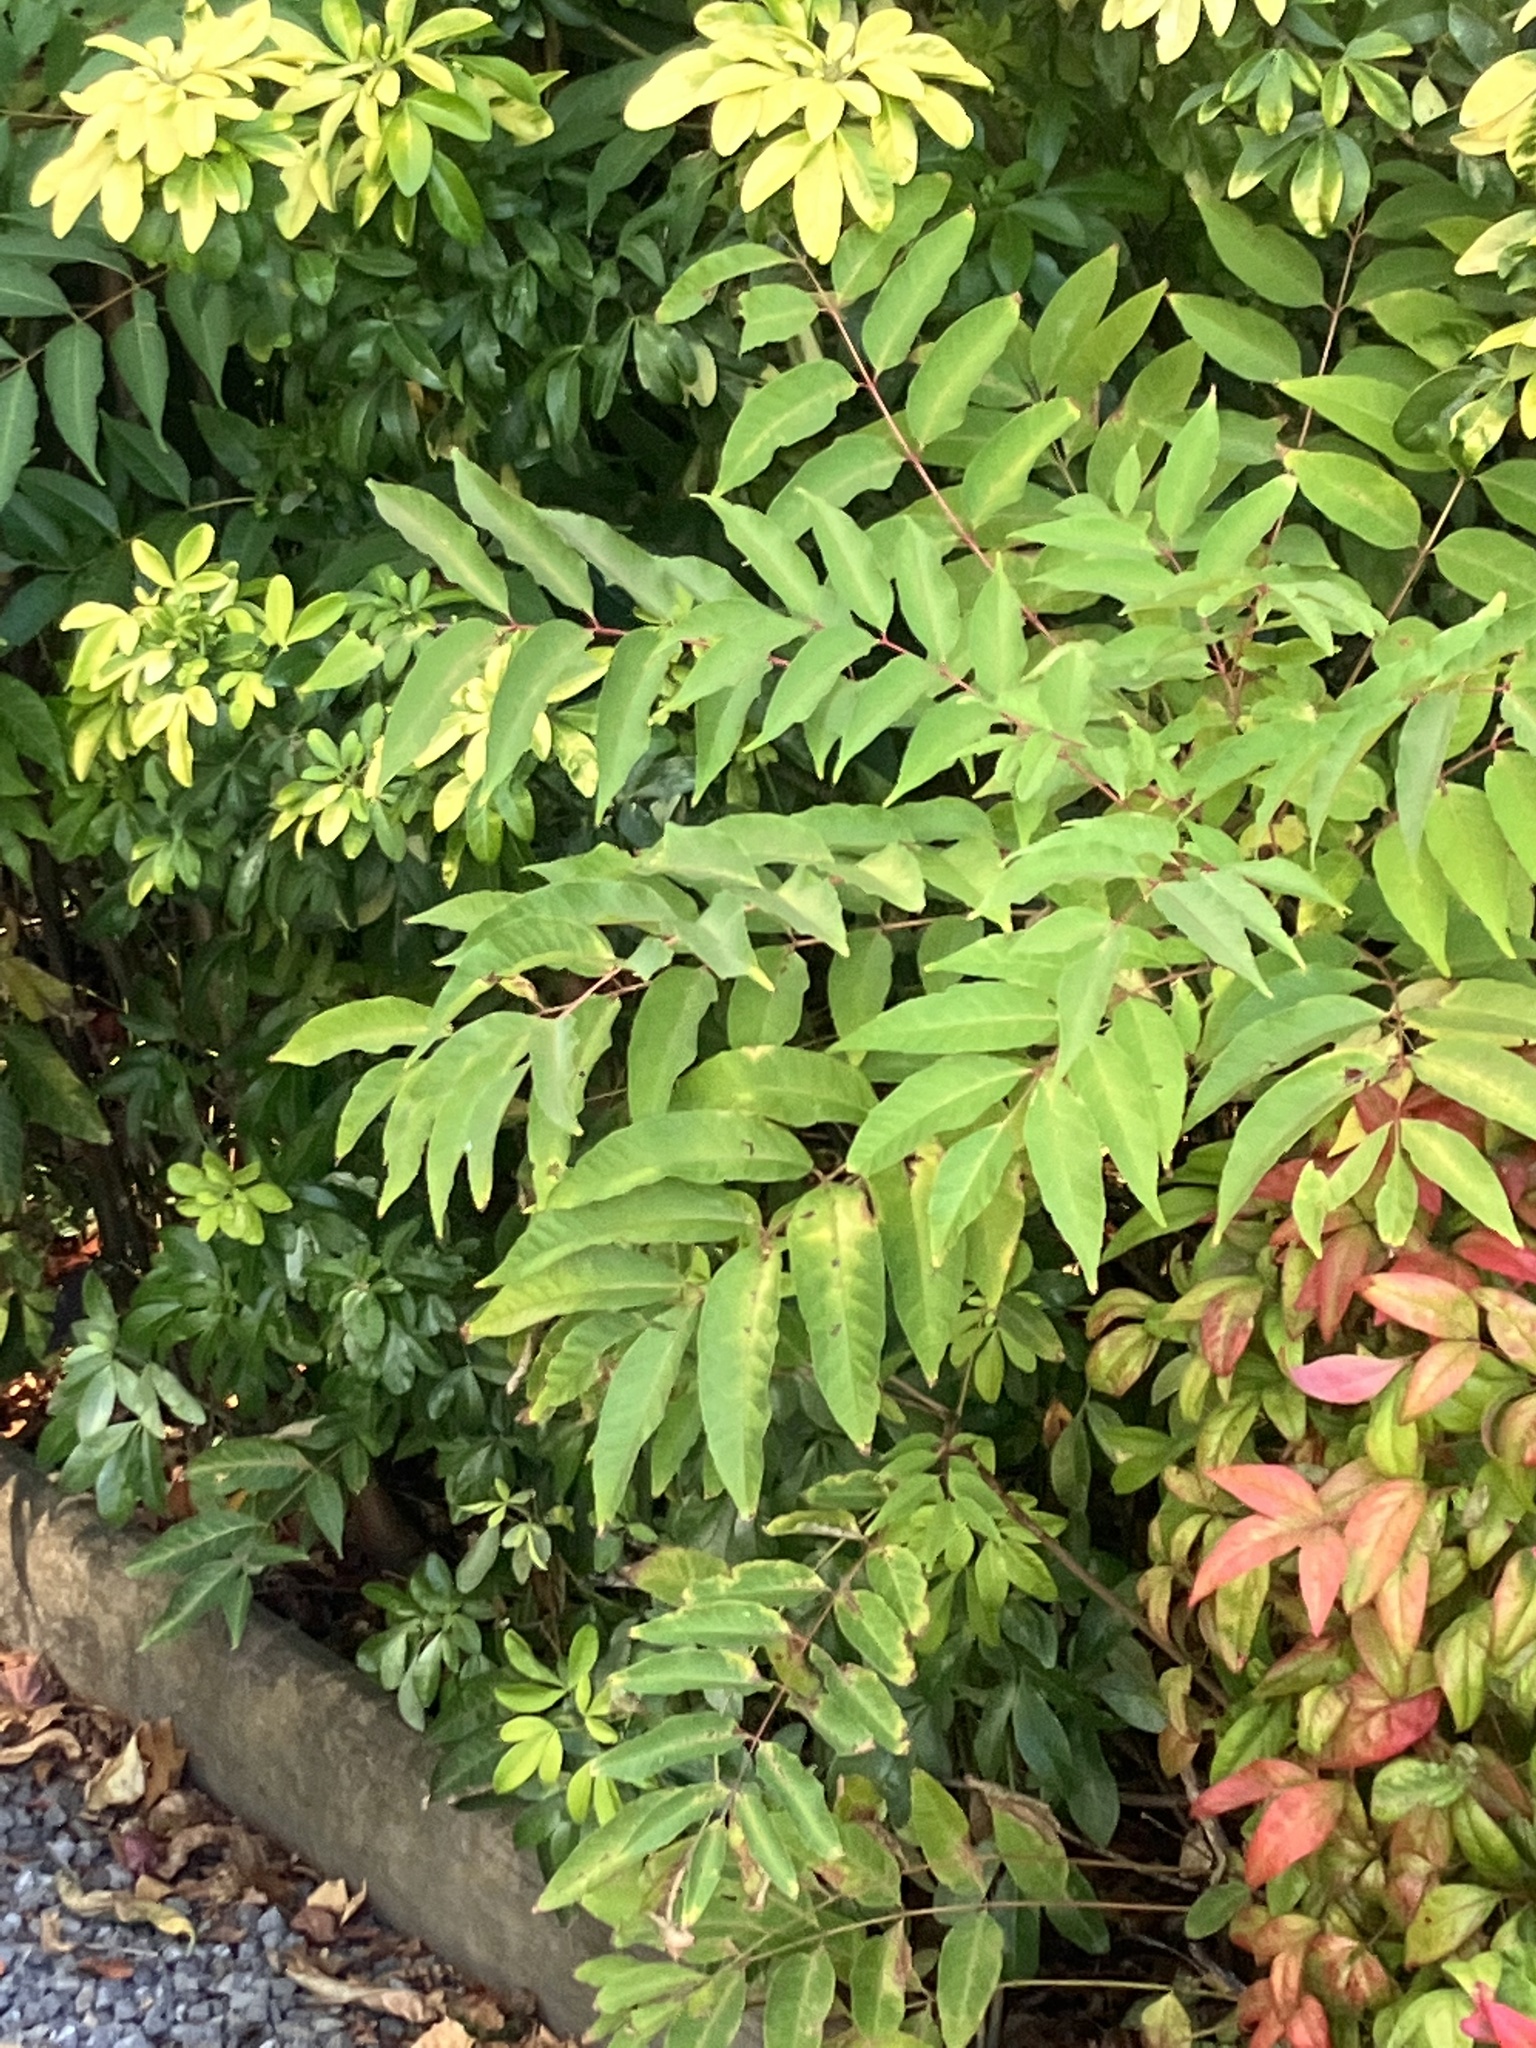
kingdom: Plantae
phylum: Tracheophyta
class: Magnoliopsida
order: Sapindales
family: Simaroubaceae
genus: Ailanthus
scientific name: Ailanthus altissima
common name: Tree-of-heaven
